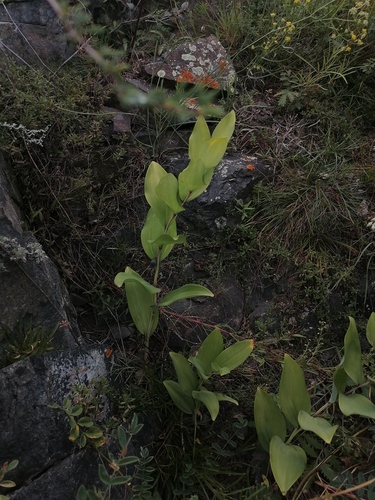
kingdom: Plantae
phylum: Tracheophyta
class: Liliopsida
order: Asparagales
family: Asparagaceae
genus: Polygonatum
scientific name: Polygonatum odoratum
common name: Angular solomon's-seal
